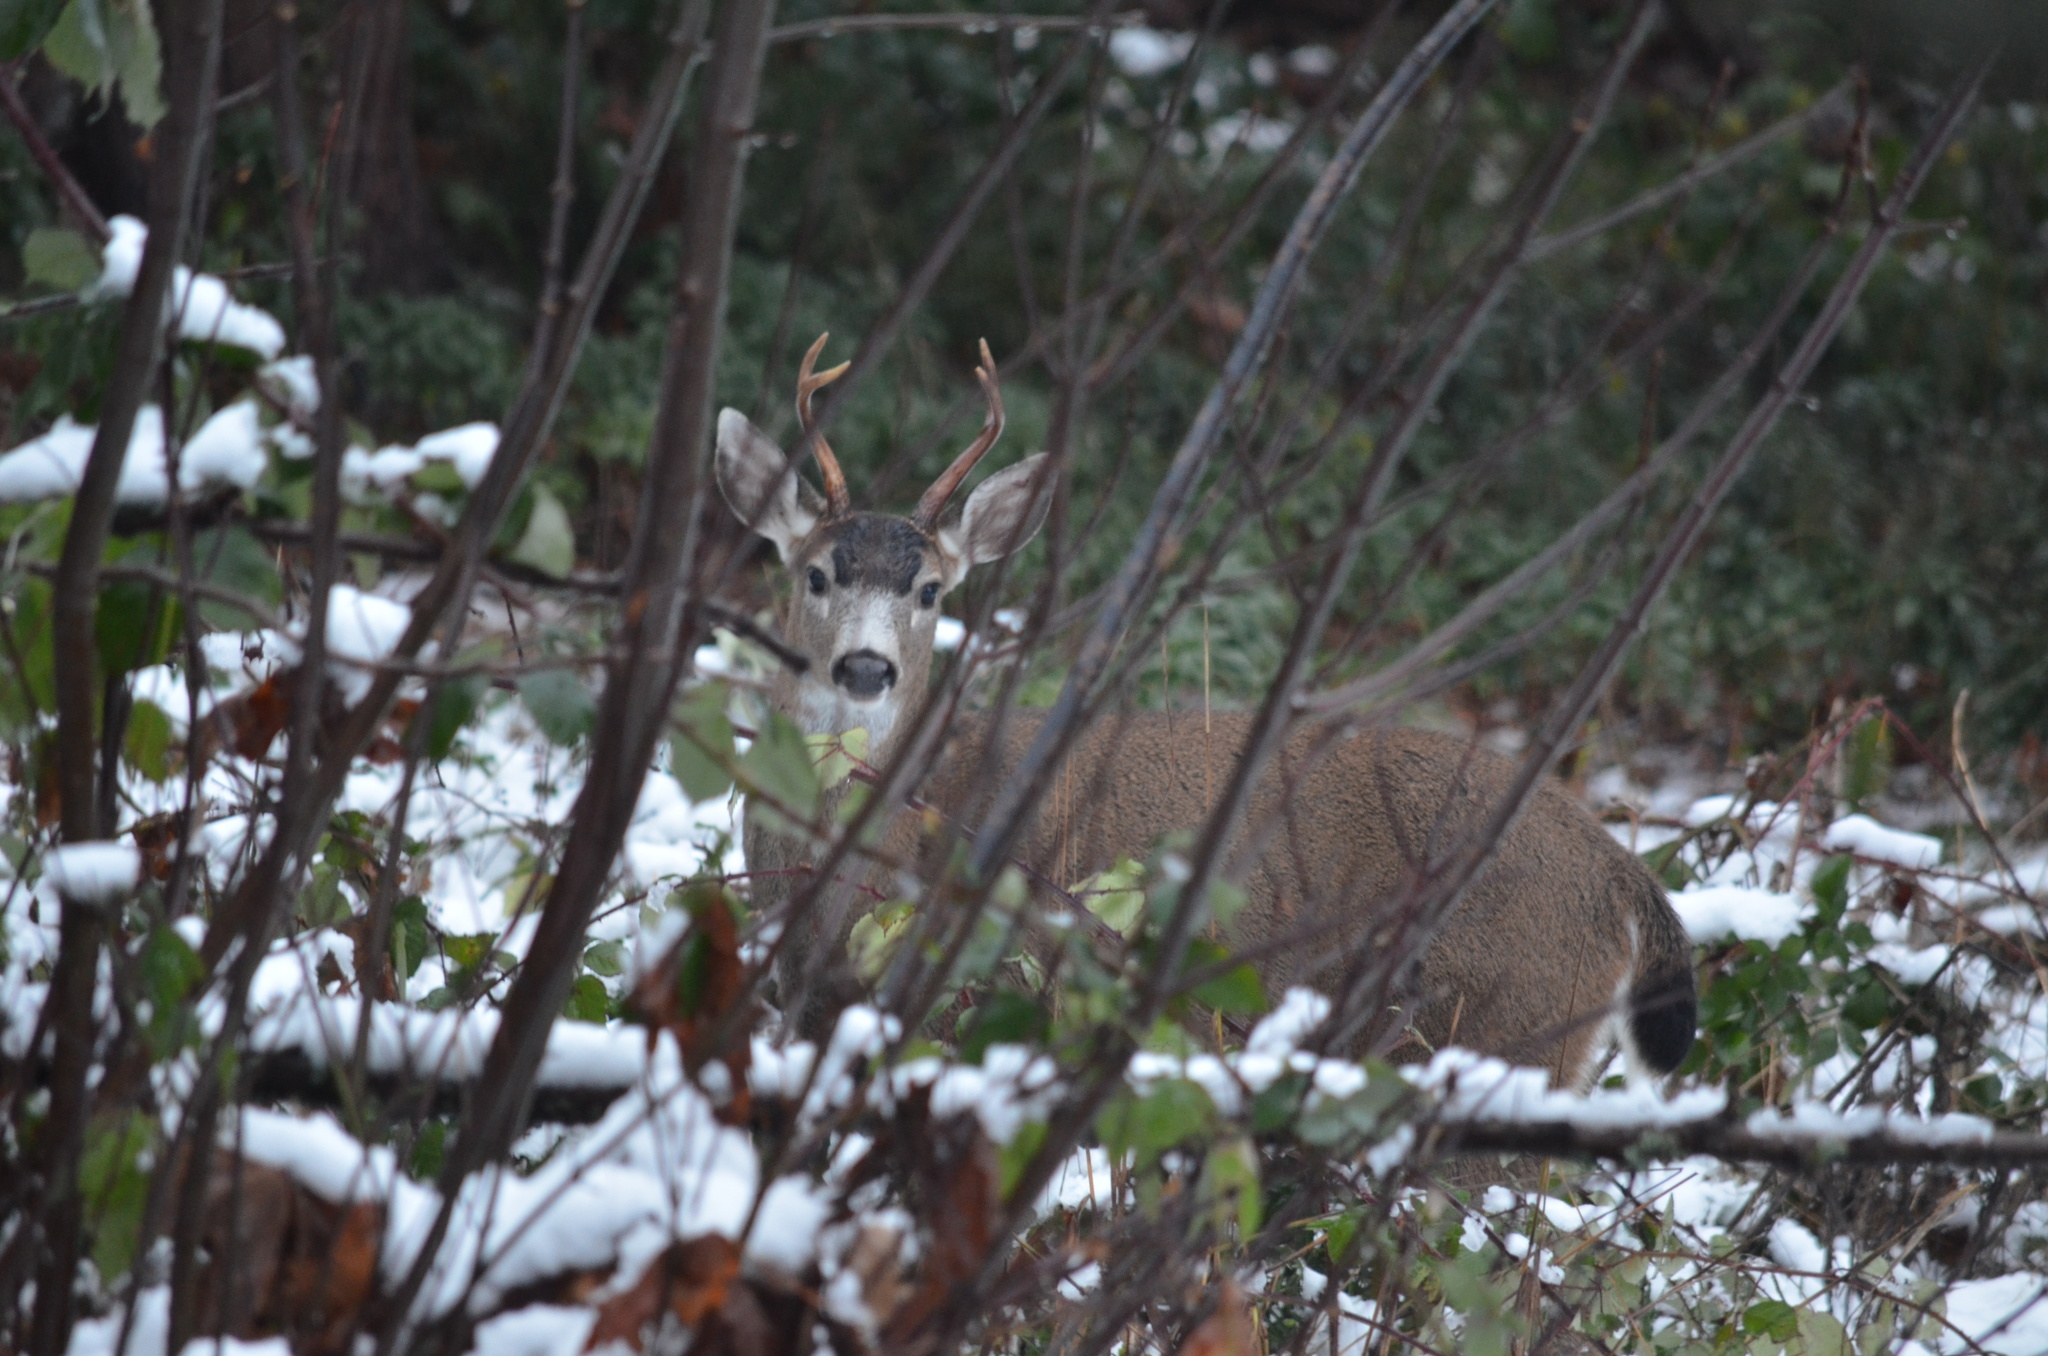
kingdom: Animalia
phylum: Chordata
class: Mammalia
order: Artiodactyla
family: Cervidae
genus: Odocoileus
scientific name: Odocoileus hemionus
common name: Mule deer
